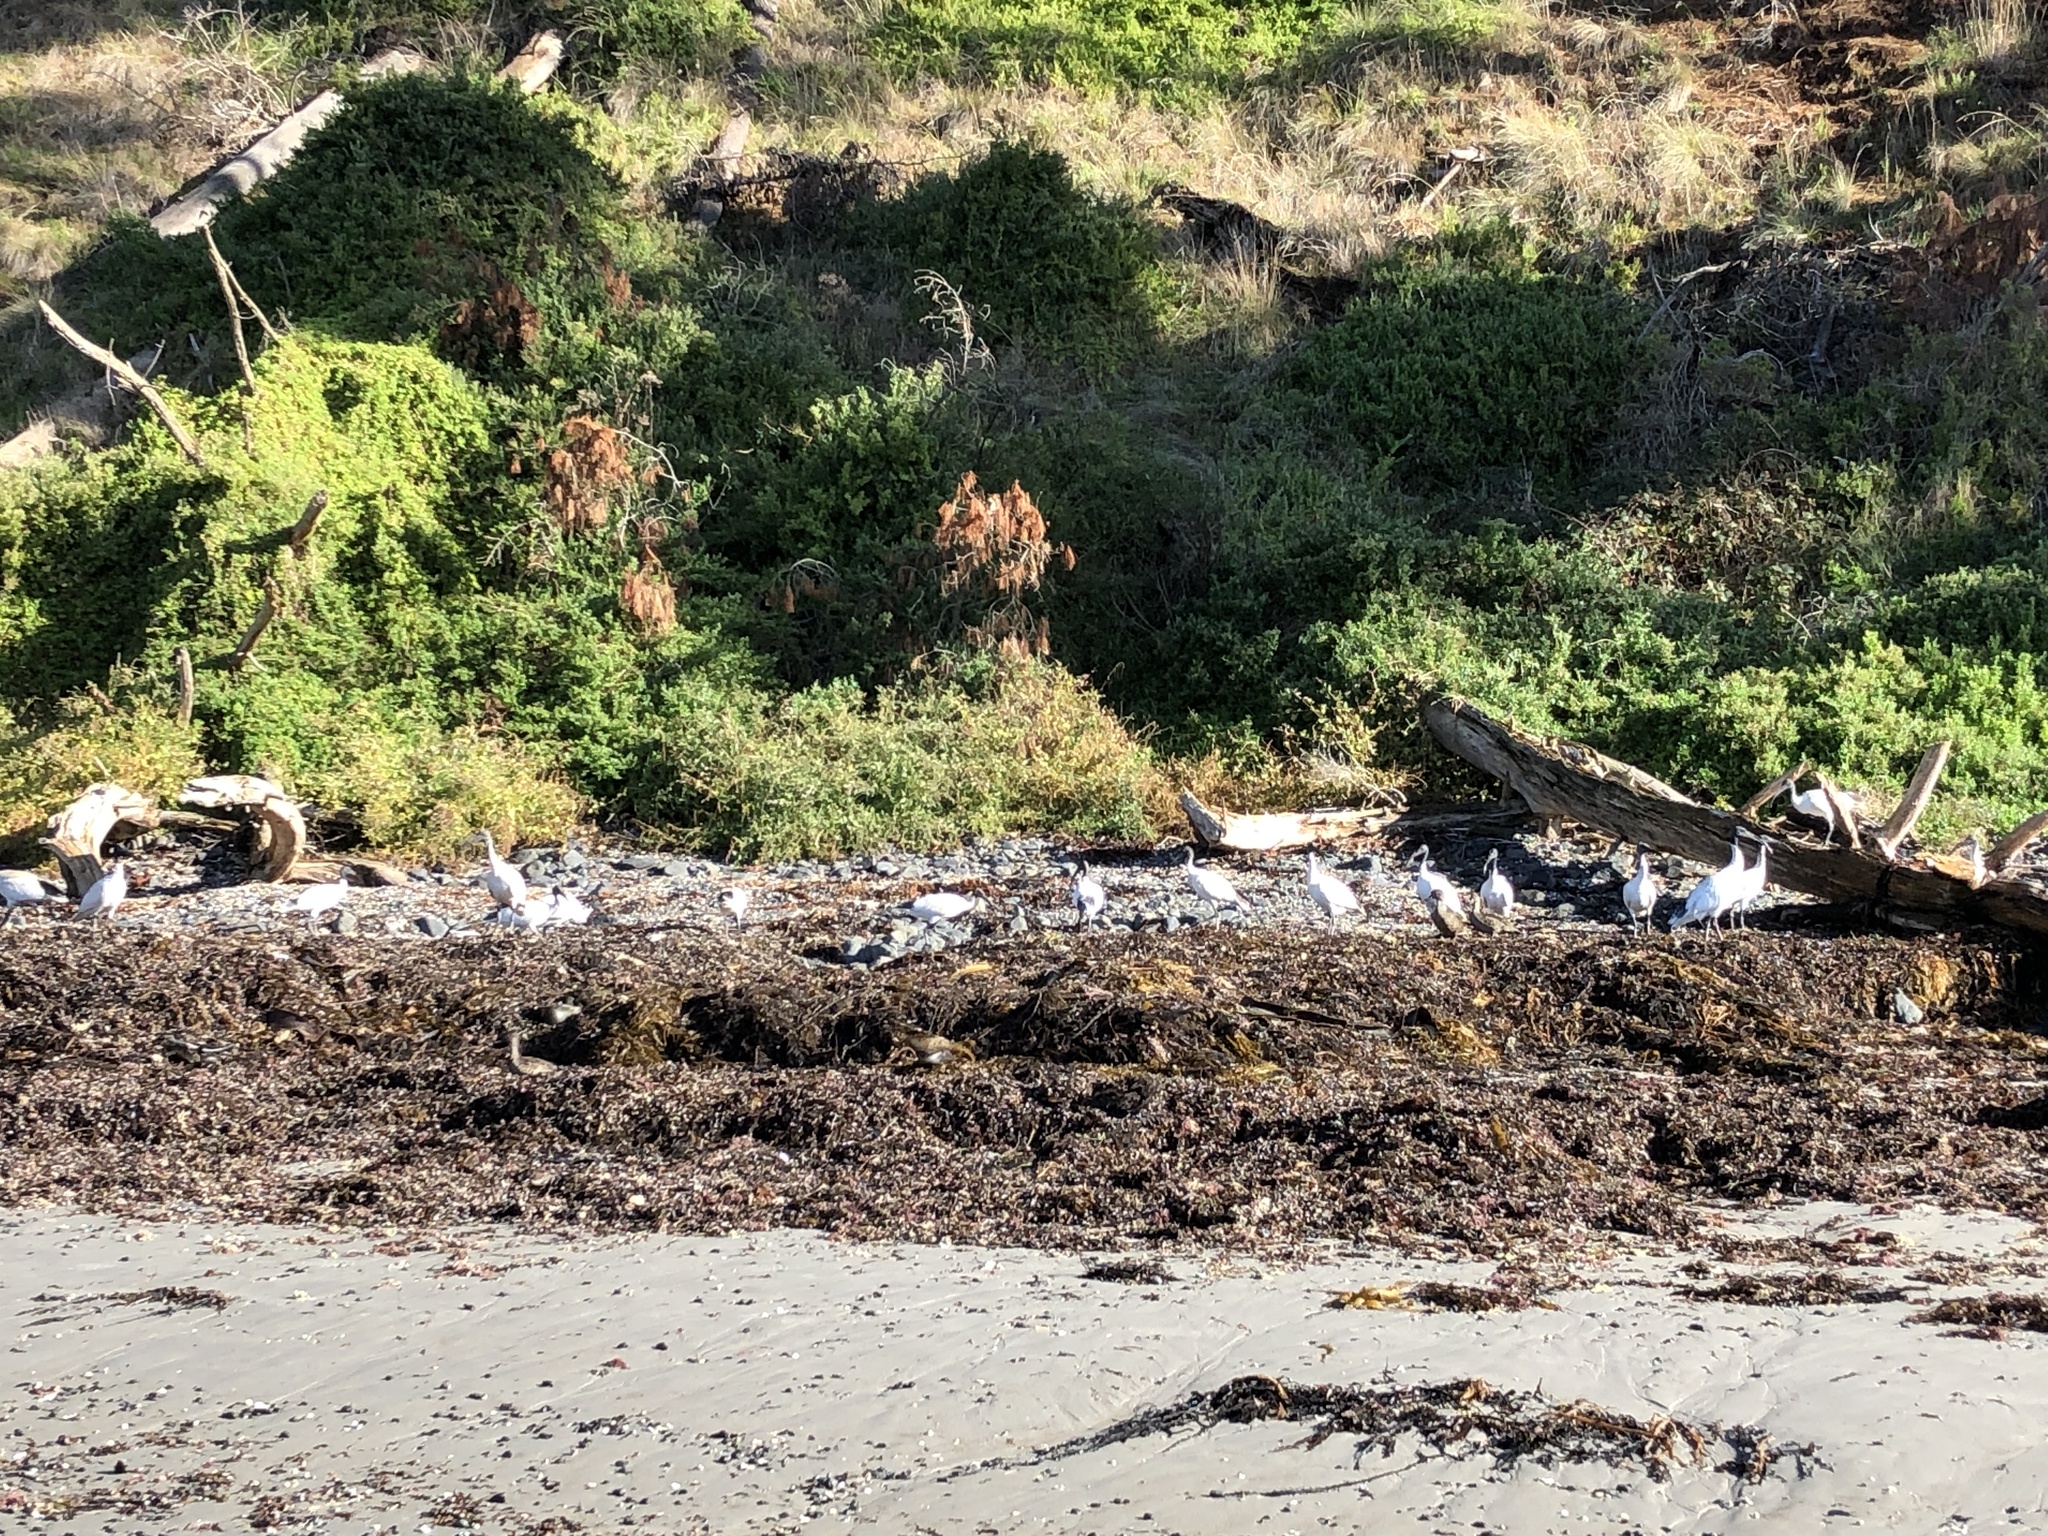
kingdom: Animalia
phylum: Chordata
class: Aves
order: Pelecaniformes
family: Threskiornithidae
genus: Threskiornis
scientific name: Threskiornis molucca
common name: Australian white ibis
